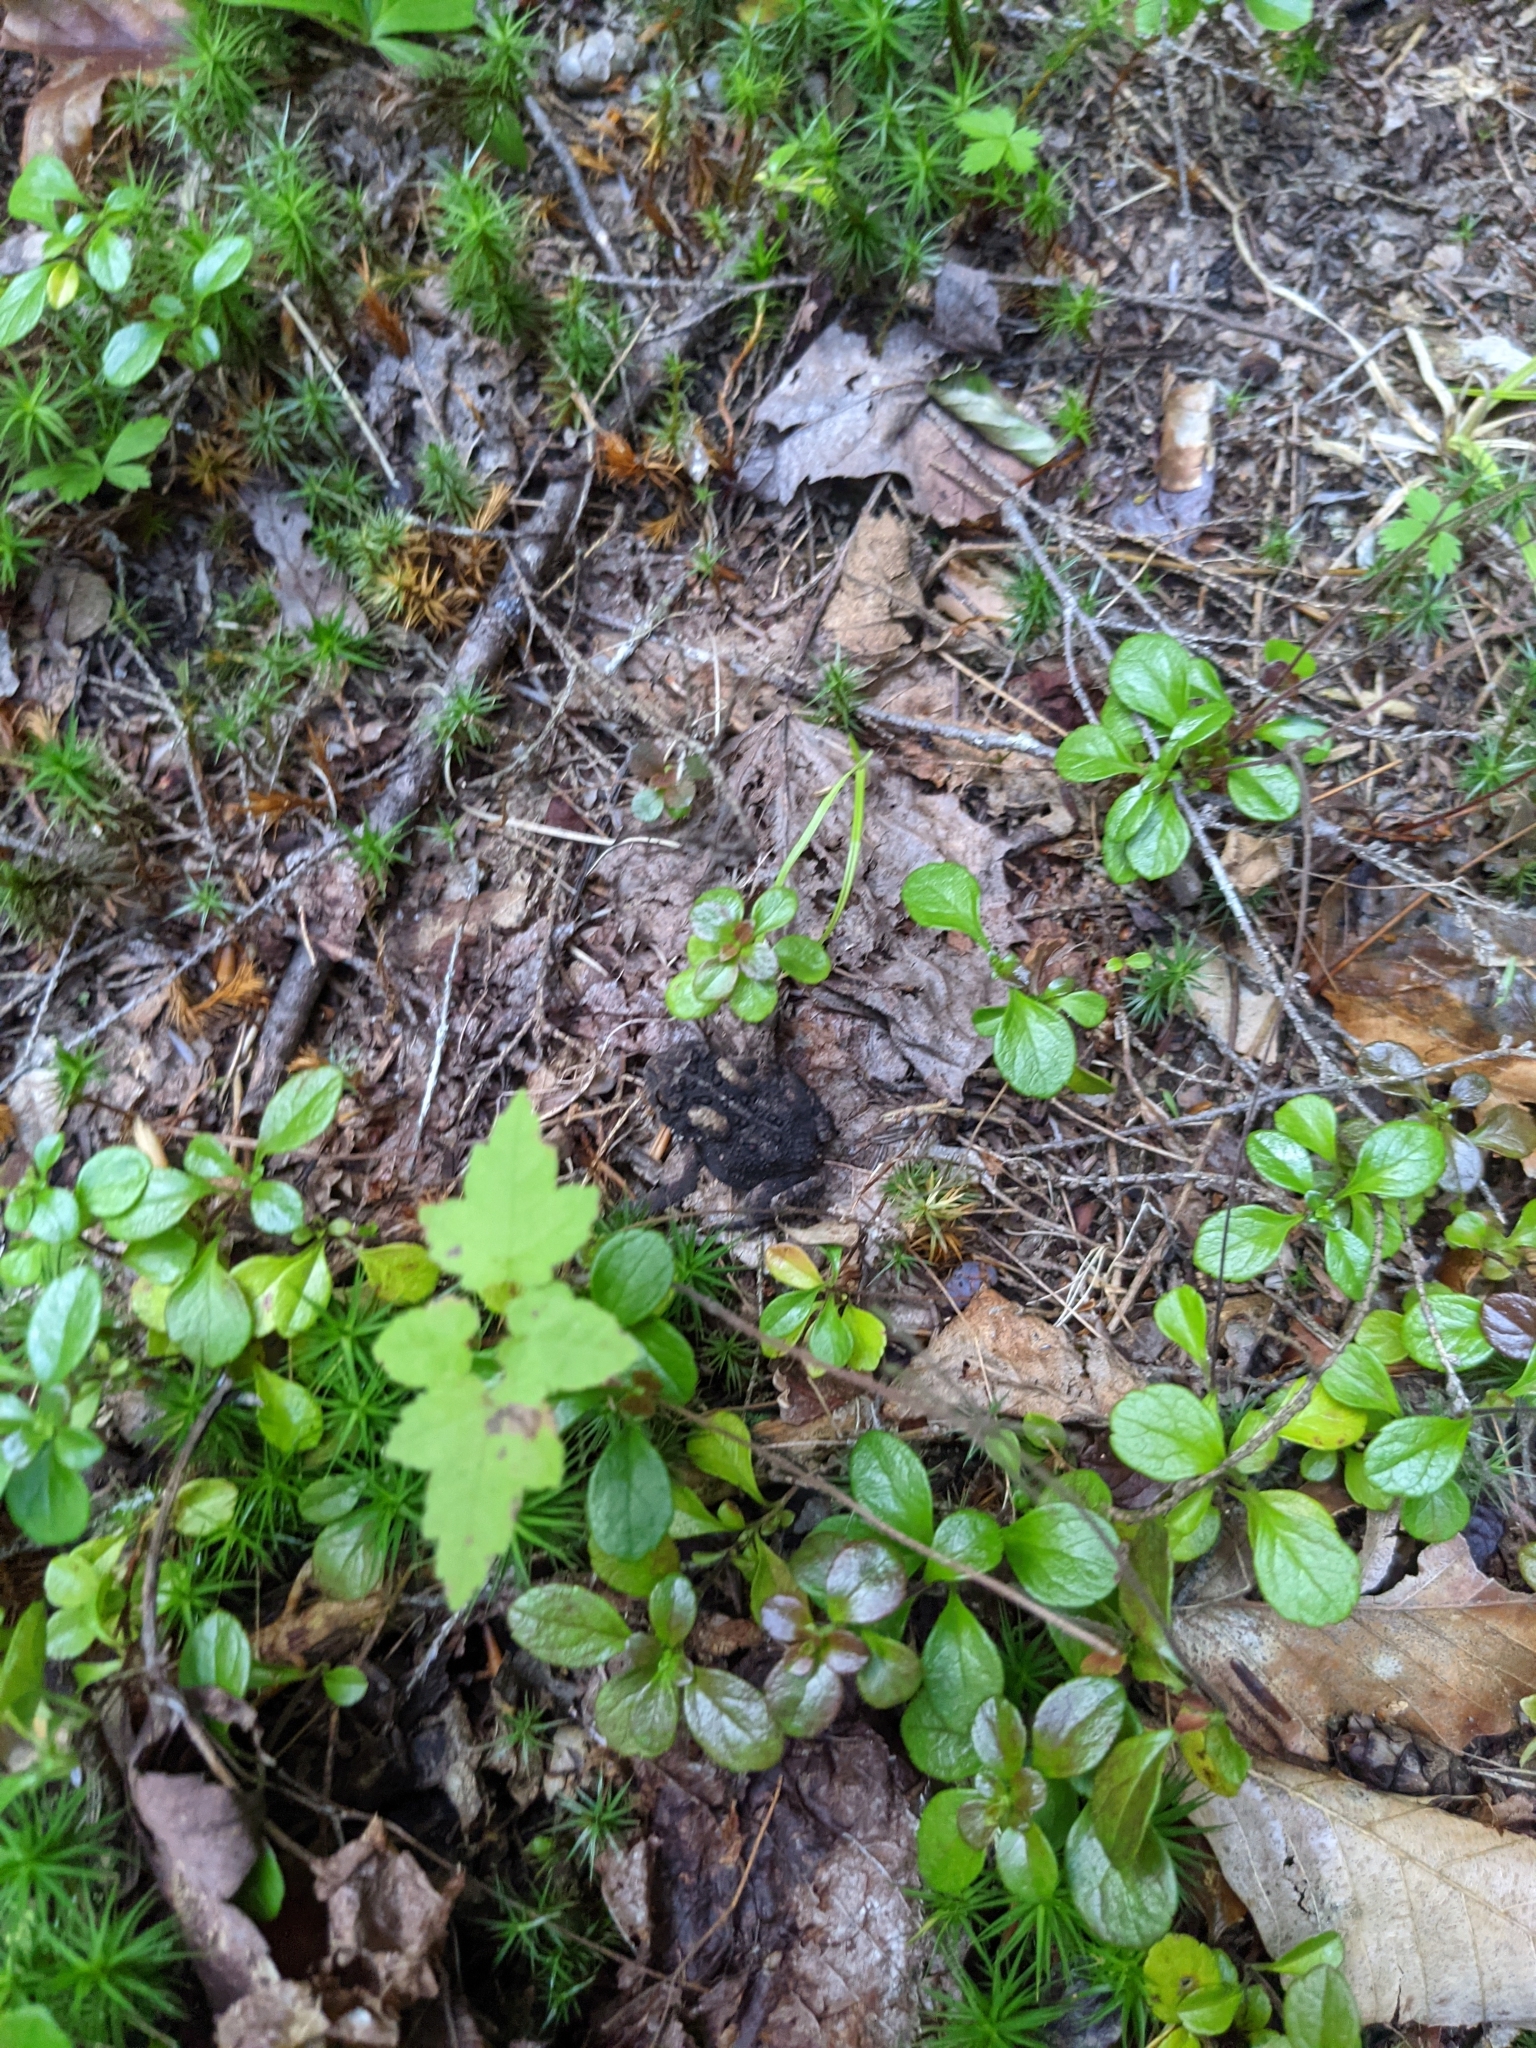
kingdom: Animalia
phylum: Chordata
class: Amphibia
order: Anura
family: Bufonidae
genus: Anaxyrus
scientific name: Anaxyrus americanus
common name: American toad
